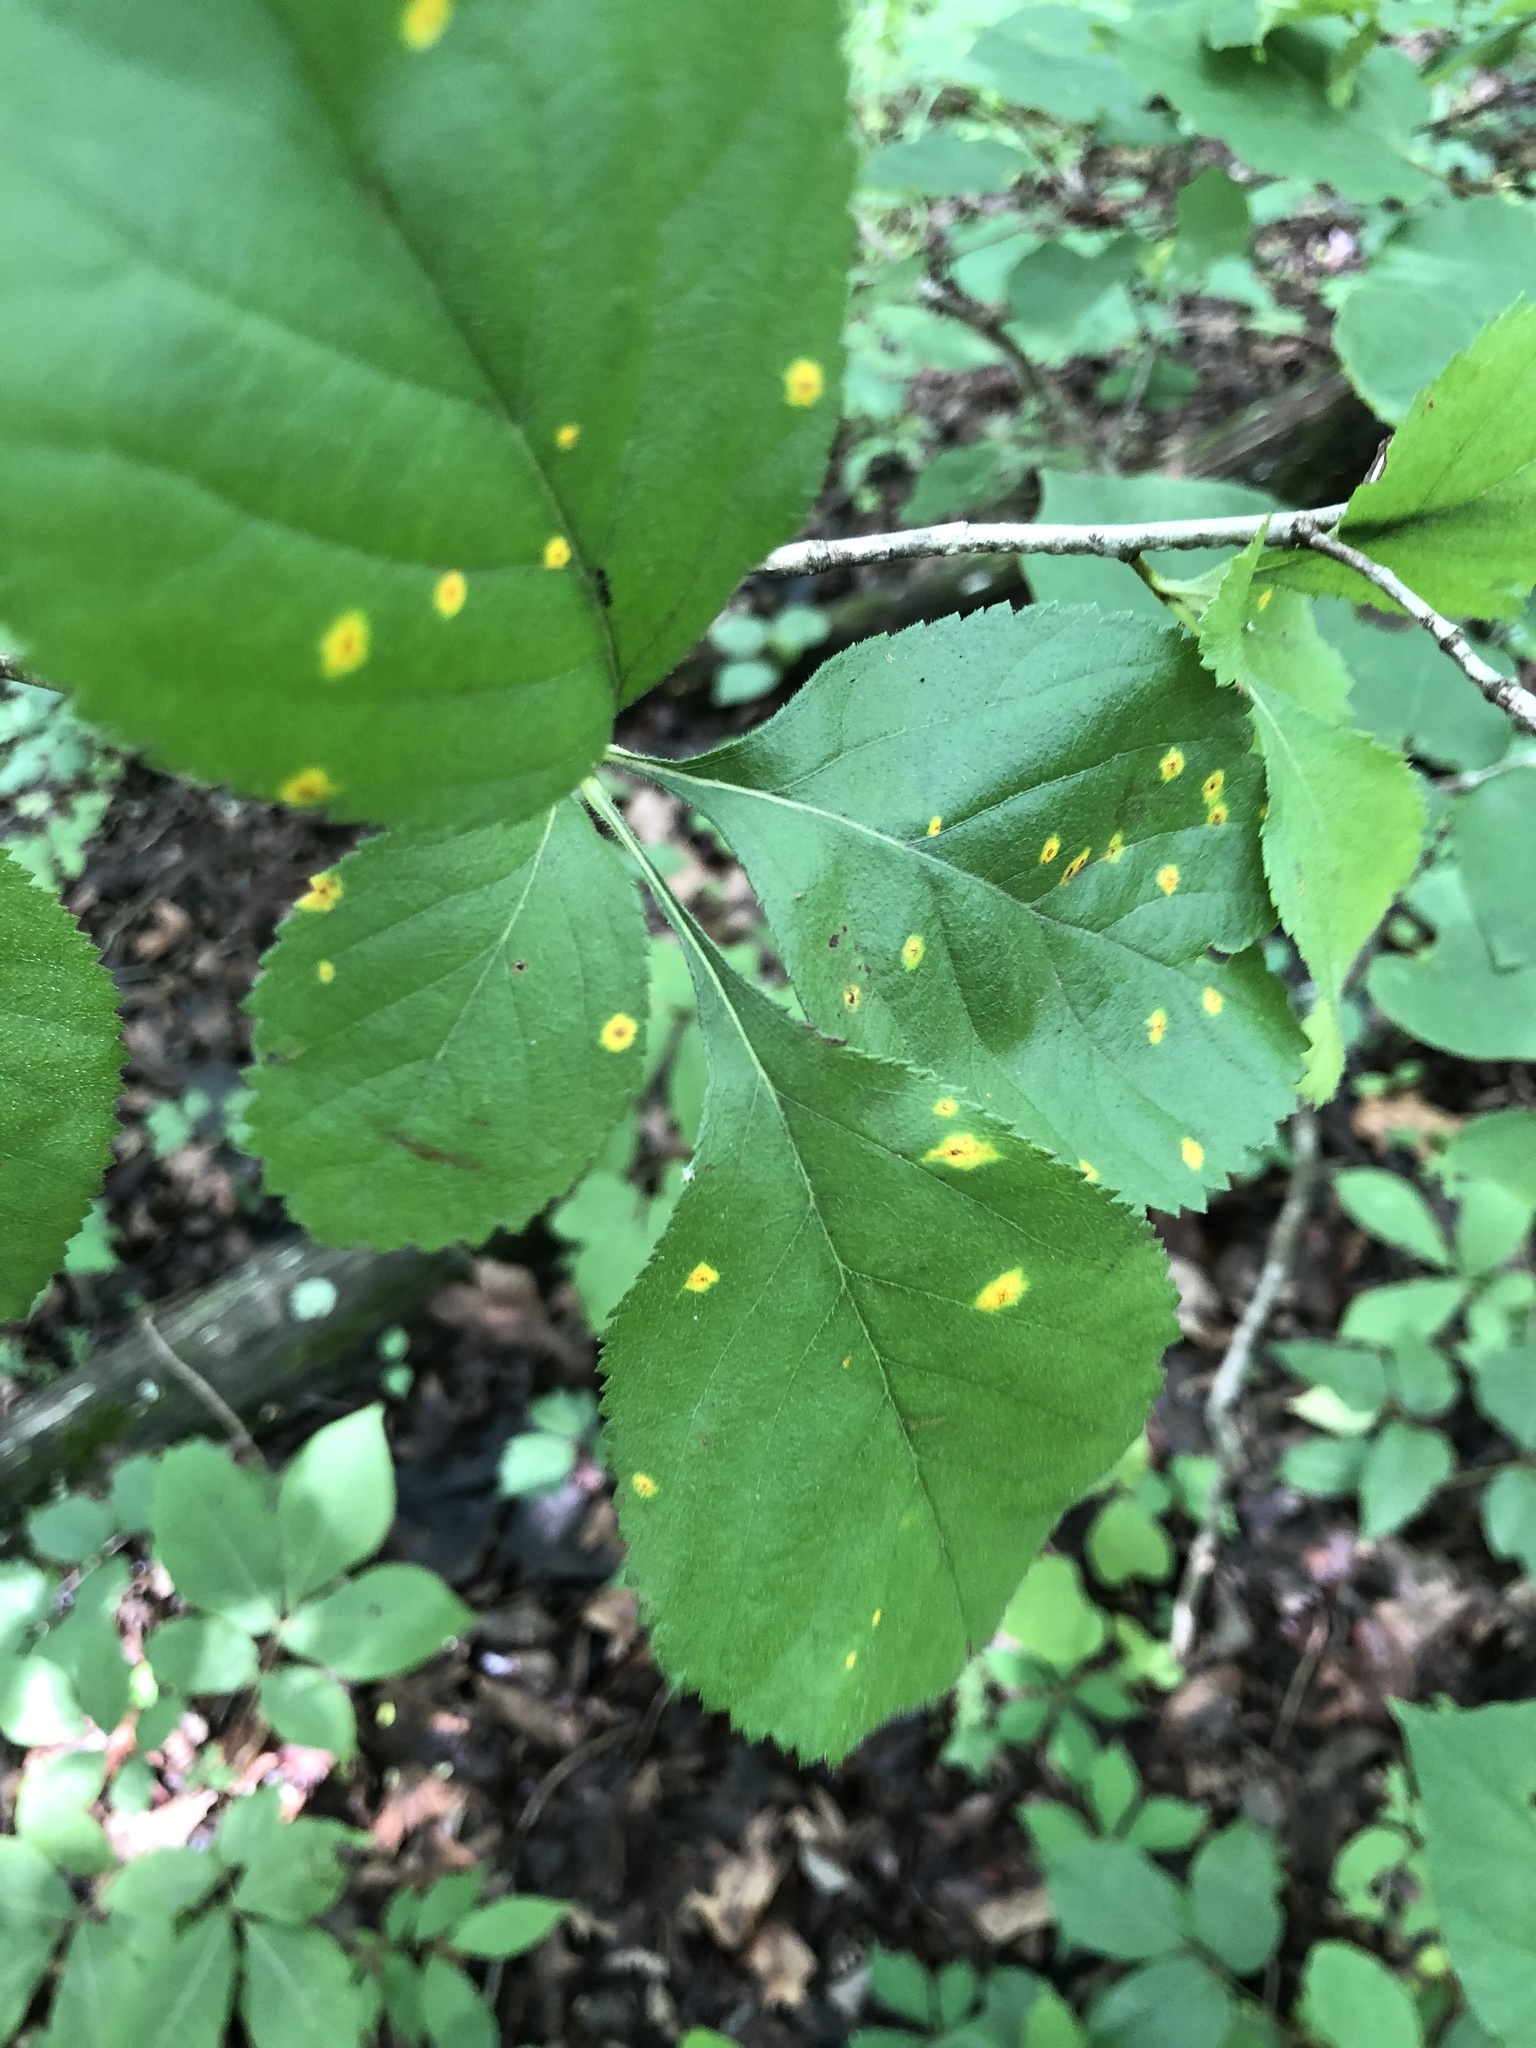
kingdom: Plantae
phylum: Tracheophyta
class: Magnoliopsida
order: Rosales
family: Rosaceae
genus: Crataegus
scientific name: Crataegus ashei
